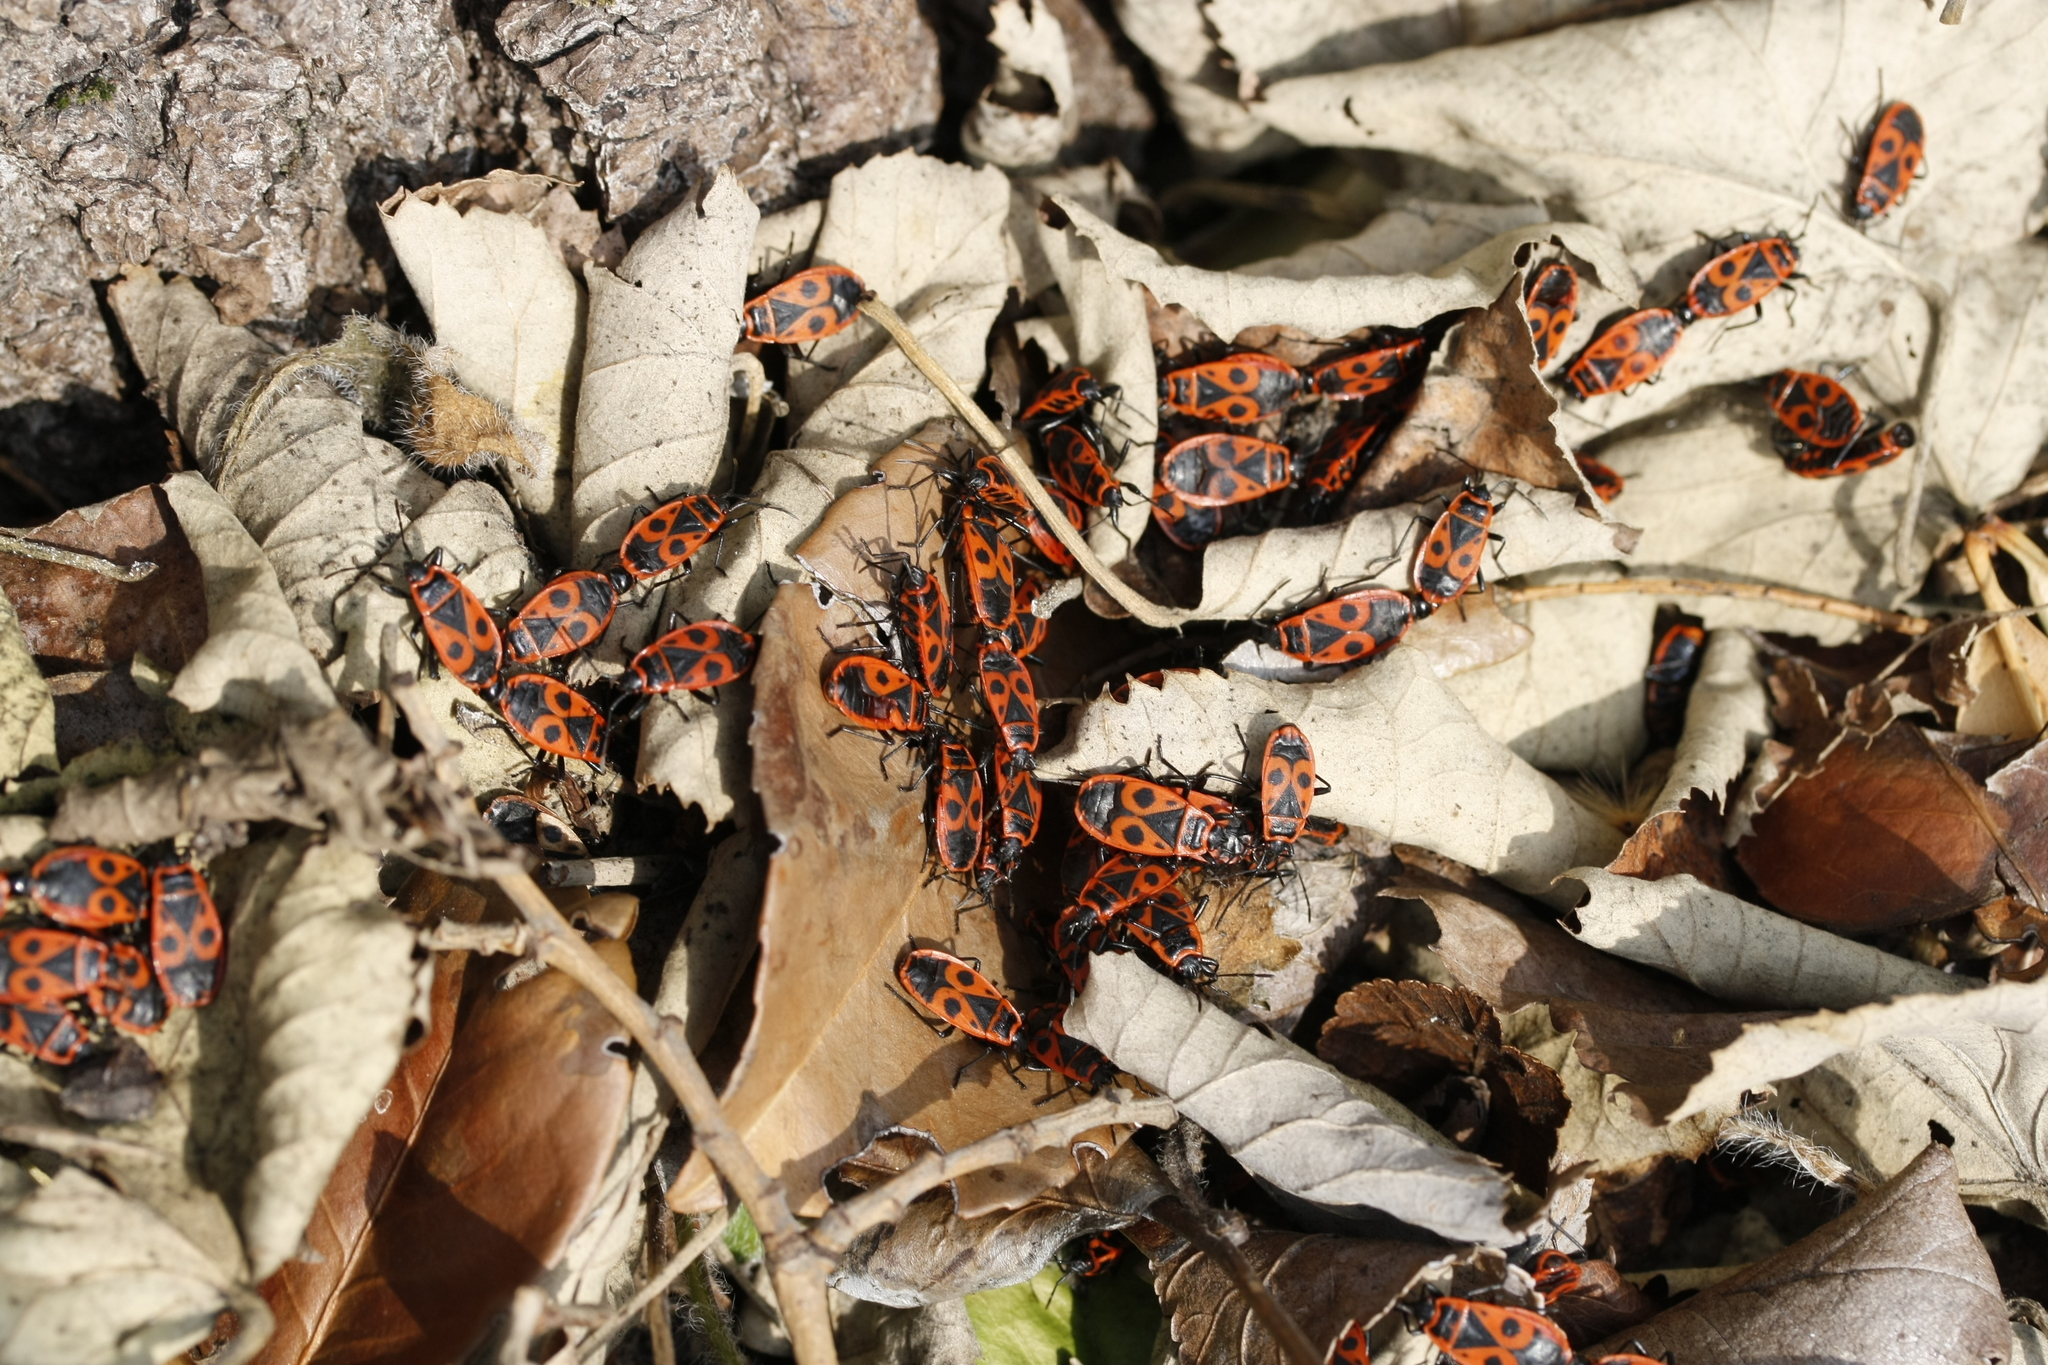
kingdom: Animalia
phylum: Arthropoda
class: Insecta
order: Hemiptera
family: Pyrrhocoridae
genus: Pyrrhocoris
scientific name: Pyrrhocoris apterus
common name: Firebug
